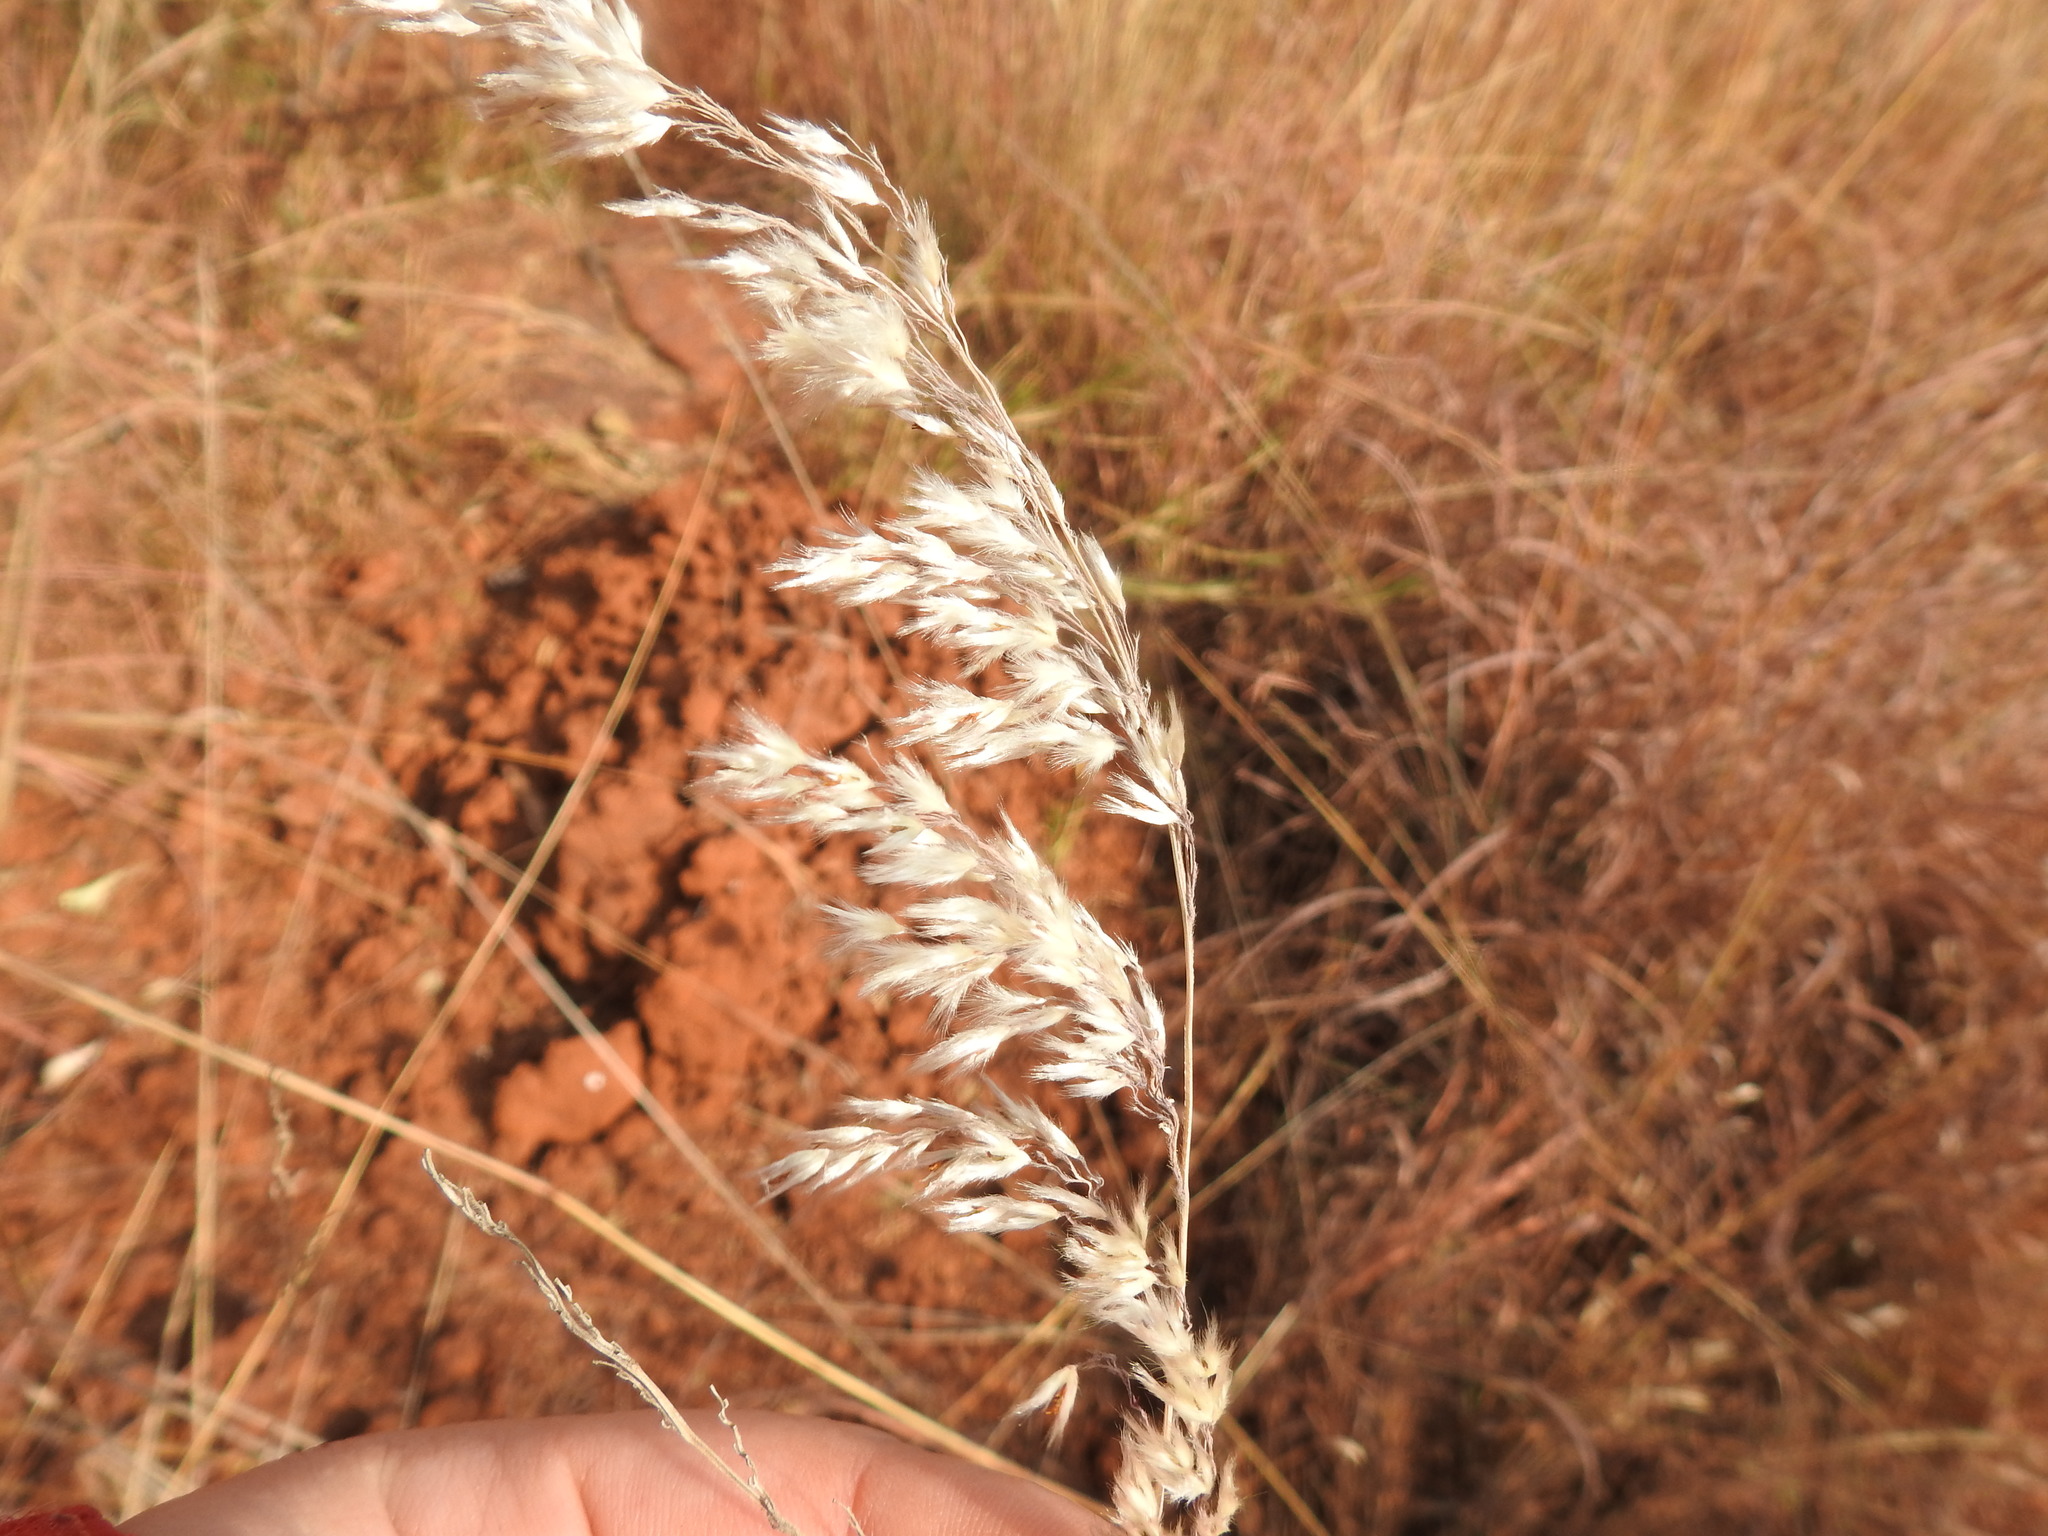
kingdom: Plantae
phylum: Tracheophyta
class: Liliopsida
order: Poales
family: Poaceae
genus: Melinis
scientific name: Melinis nerviglumis
